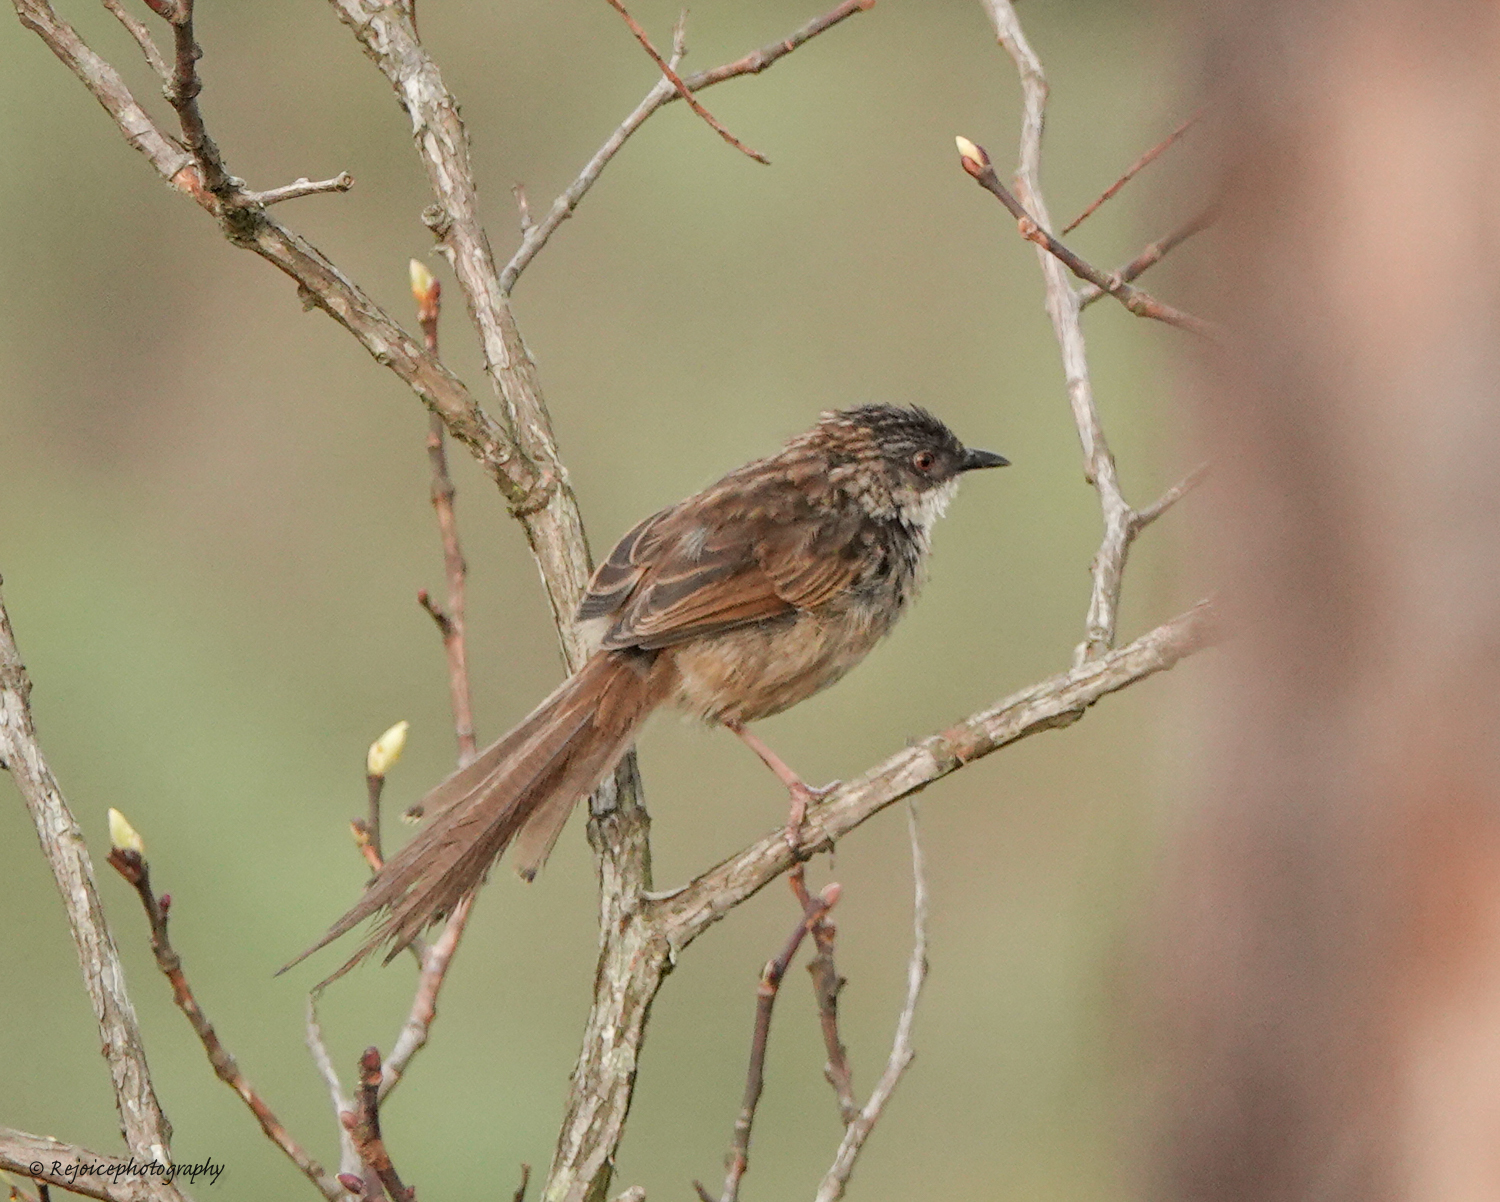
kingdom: Animalia
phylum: Chordata
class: Aves
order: Passeriformes
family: Cisticolidae
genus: Prinia
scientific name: Prinia crinigera
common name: Striated prinia
